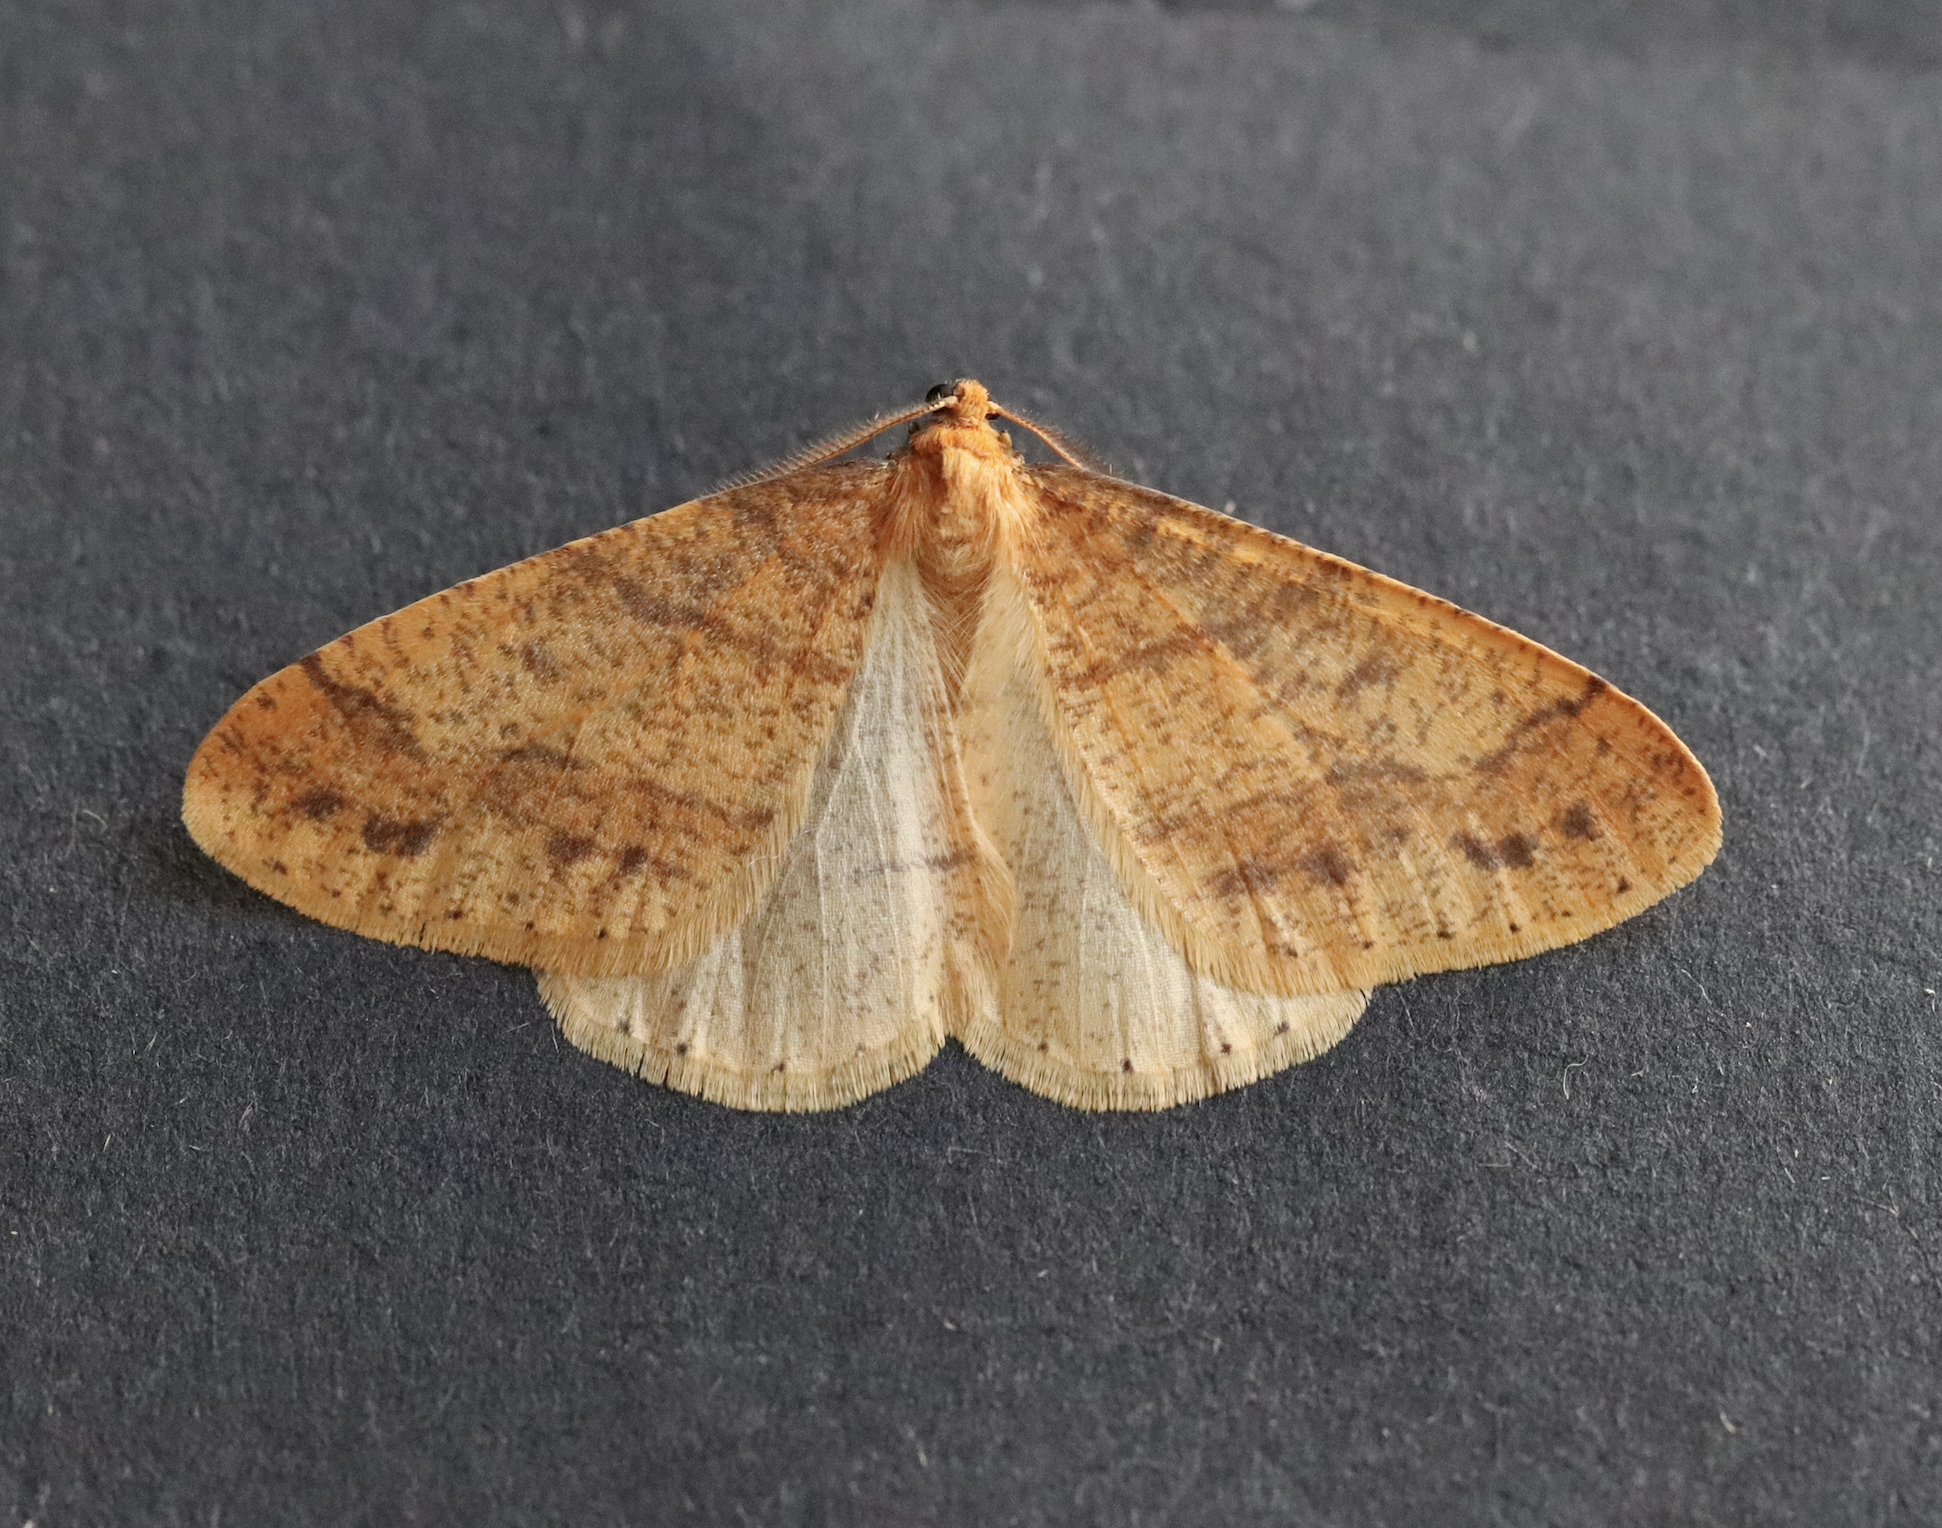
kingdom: Animalia
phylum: Arthropoda
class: Insecta
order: Lepidoptera
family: Geometridae
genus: Agriopis
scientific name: Agriopis aurantiaria
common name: Scarce umber
